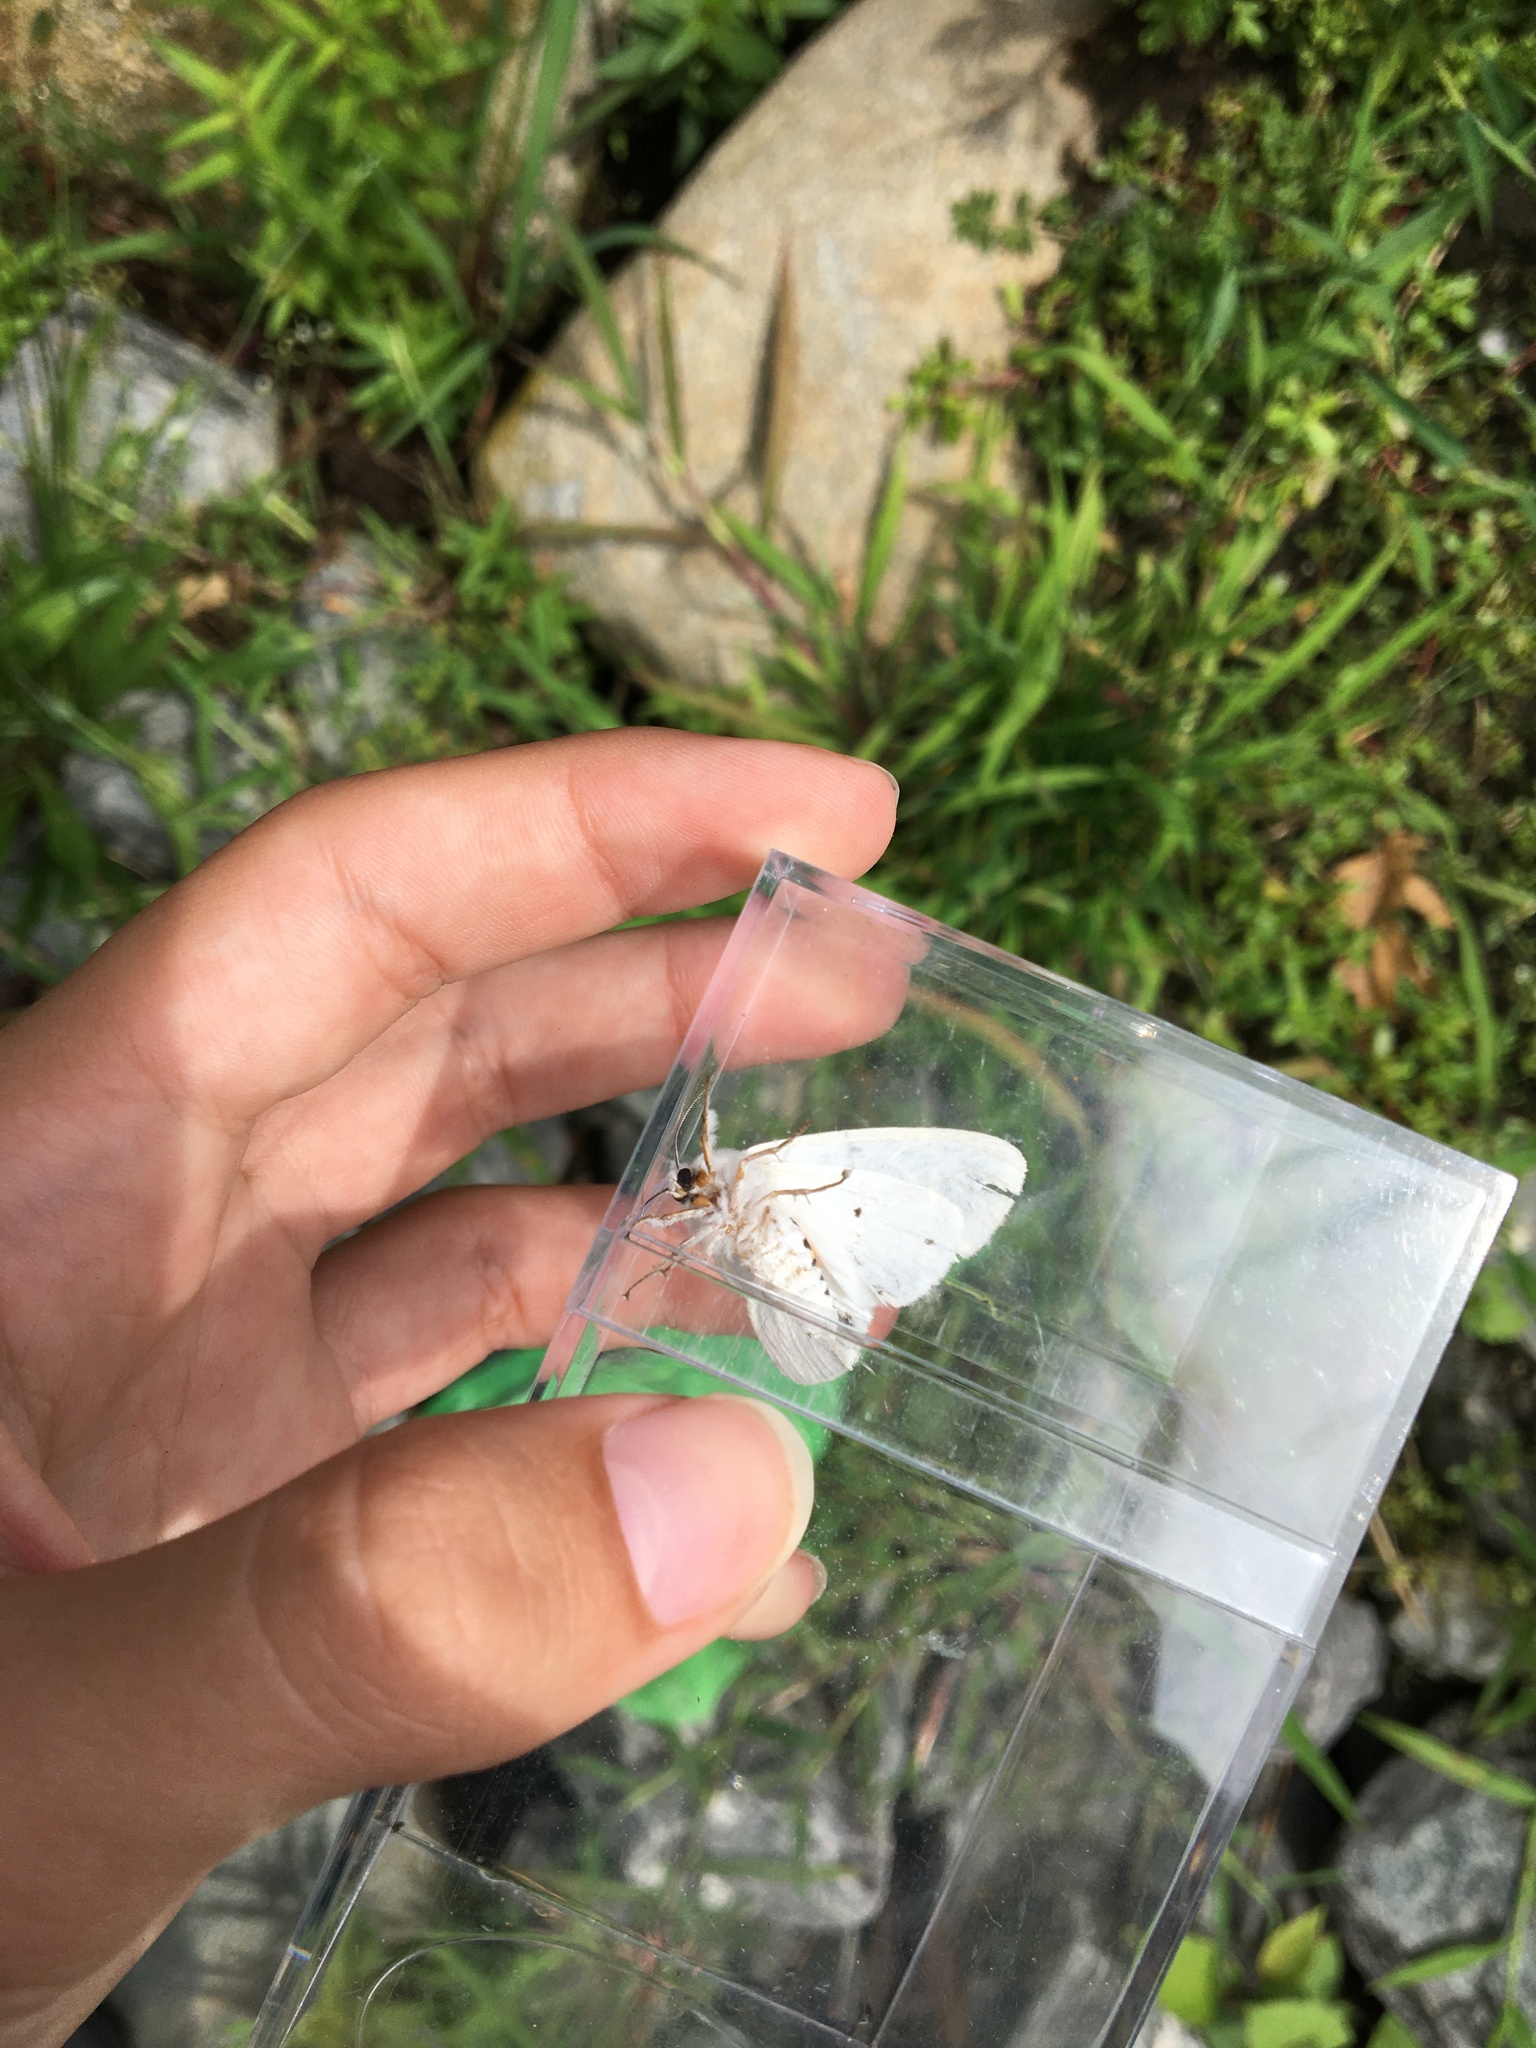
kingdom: Animalia
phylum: Arthropoda
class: Insecta
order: Lepidoptera
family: Erebidae
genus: Spilosoma
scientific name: Spilosoma virginica
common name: Virginia tiger moth
